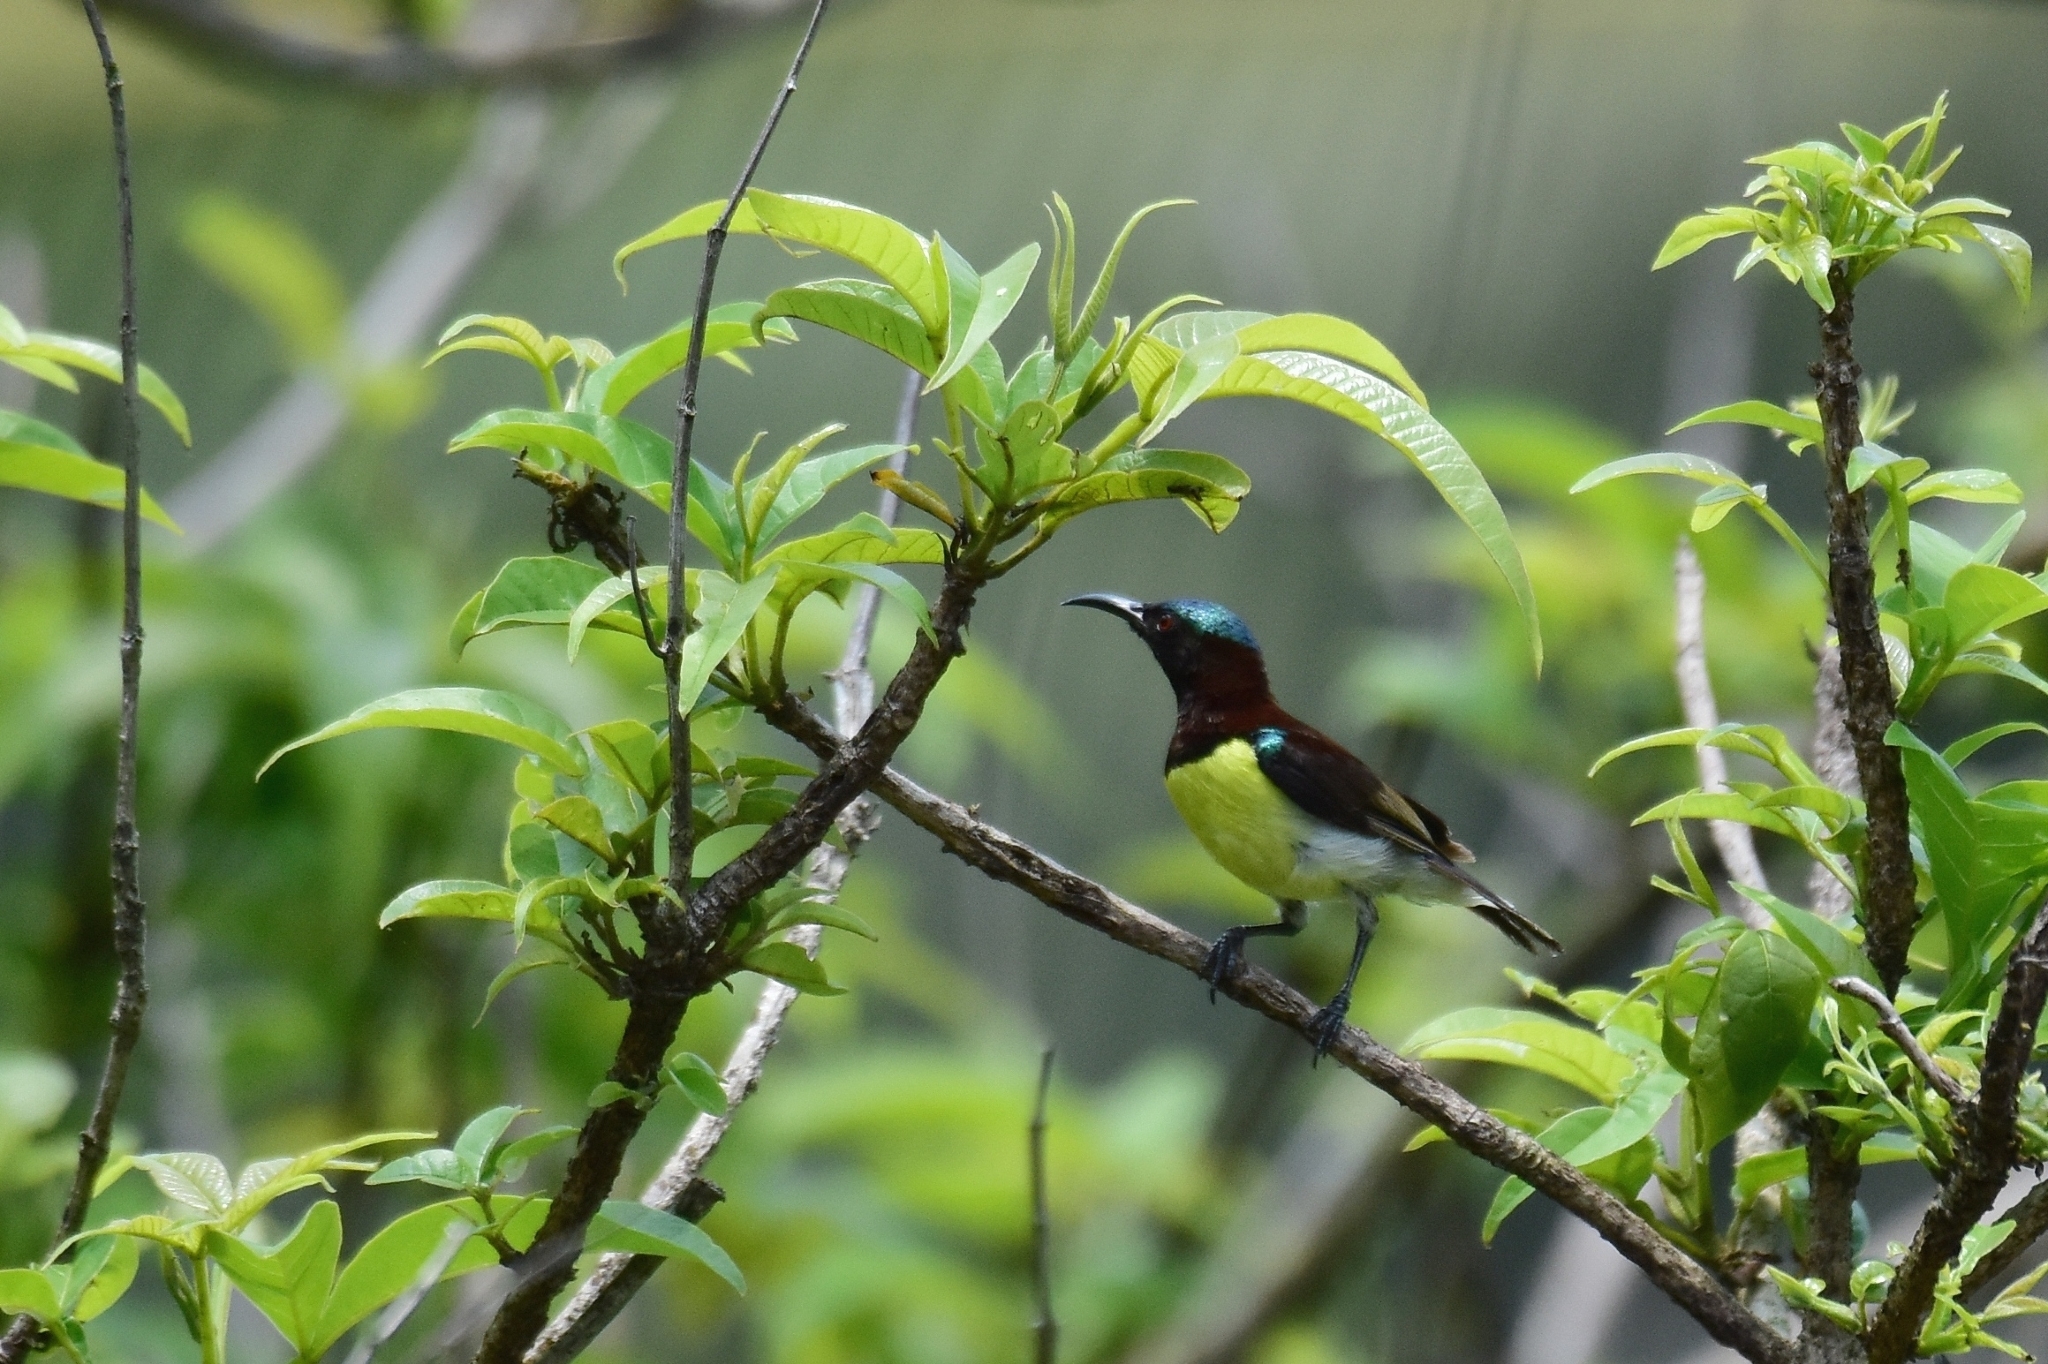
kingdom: Animalia
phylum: Chordata
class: Aves
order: Passeriformes
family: Nectariniidae
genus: Leptocoma
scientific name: Leptocoma zeylonica
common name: Purple-rumped sunbird
